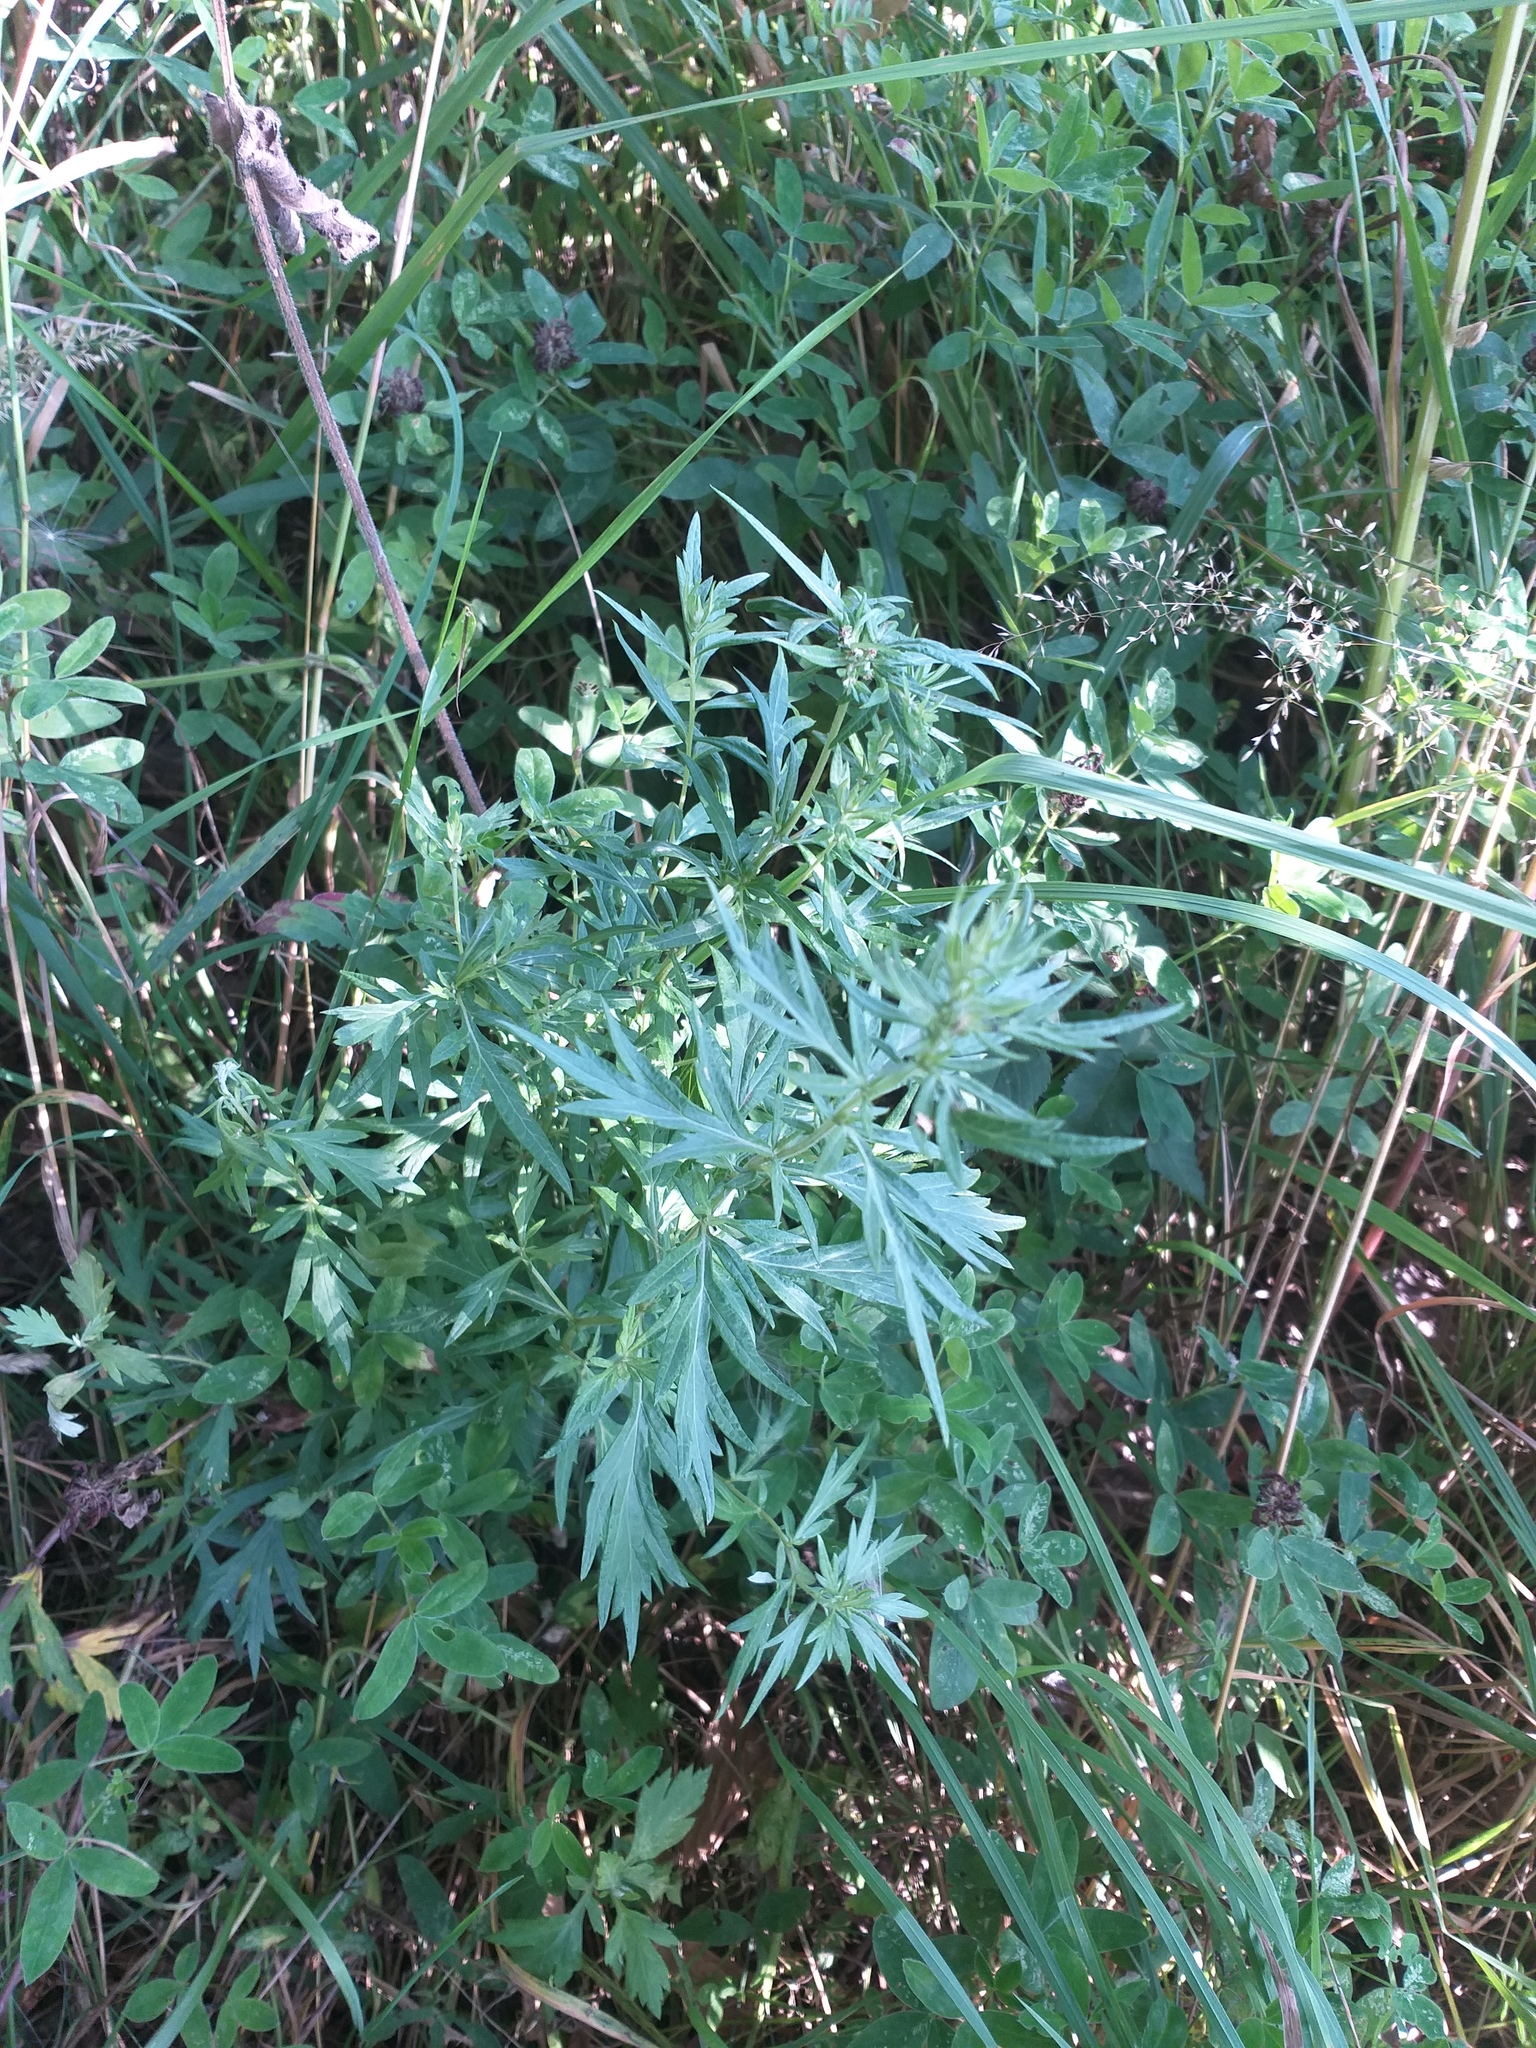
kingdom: Plantae
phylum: Tracheophyta
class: Magnoliopsida
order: Asterales
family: Asteraceae
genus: Artemisia
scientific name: Artemisia vulgaris
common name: Mugwort
